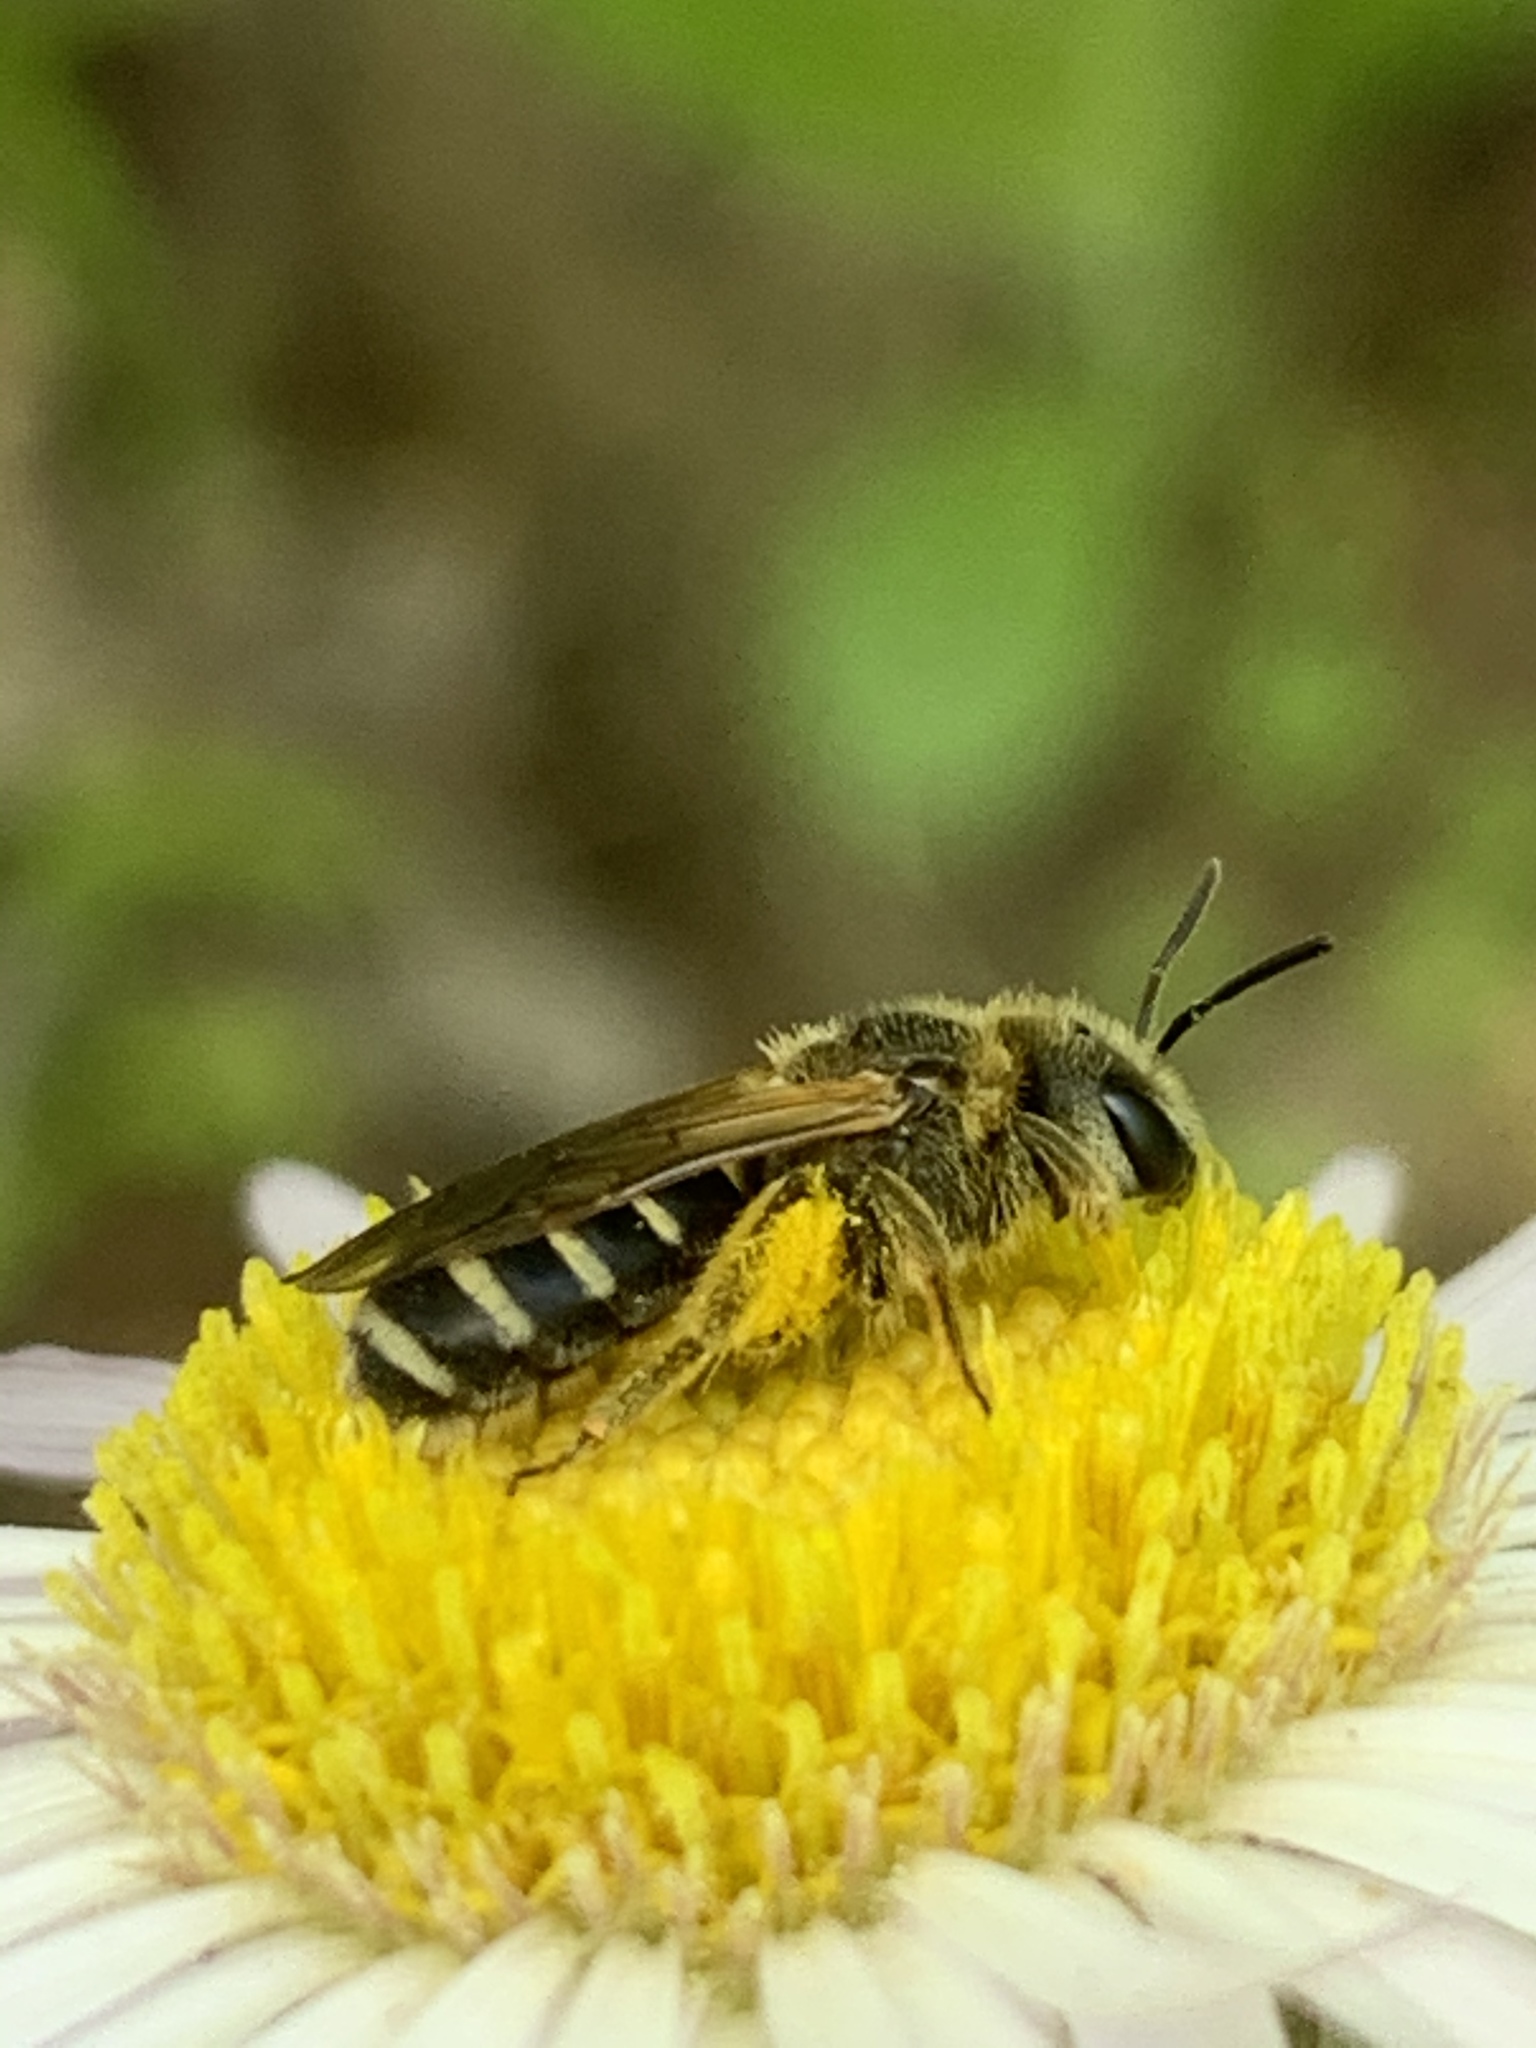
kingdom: Animalia
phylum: Arthropoda
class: Insecta
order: Hymenoptera
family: Halictidae
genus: Halictus
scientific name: Halictus ligatus
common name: Ligated furrow bee
